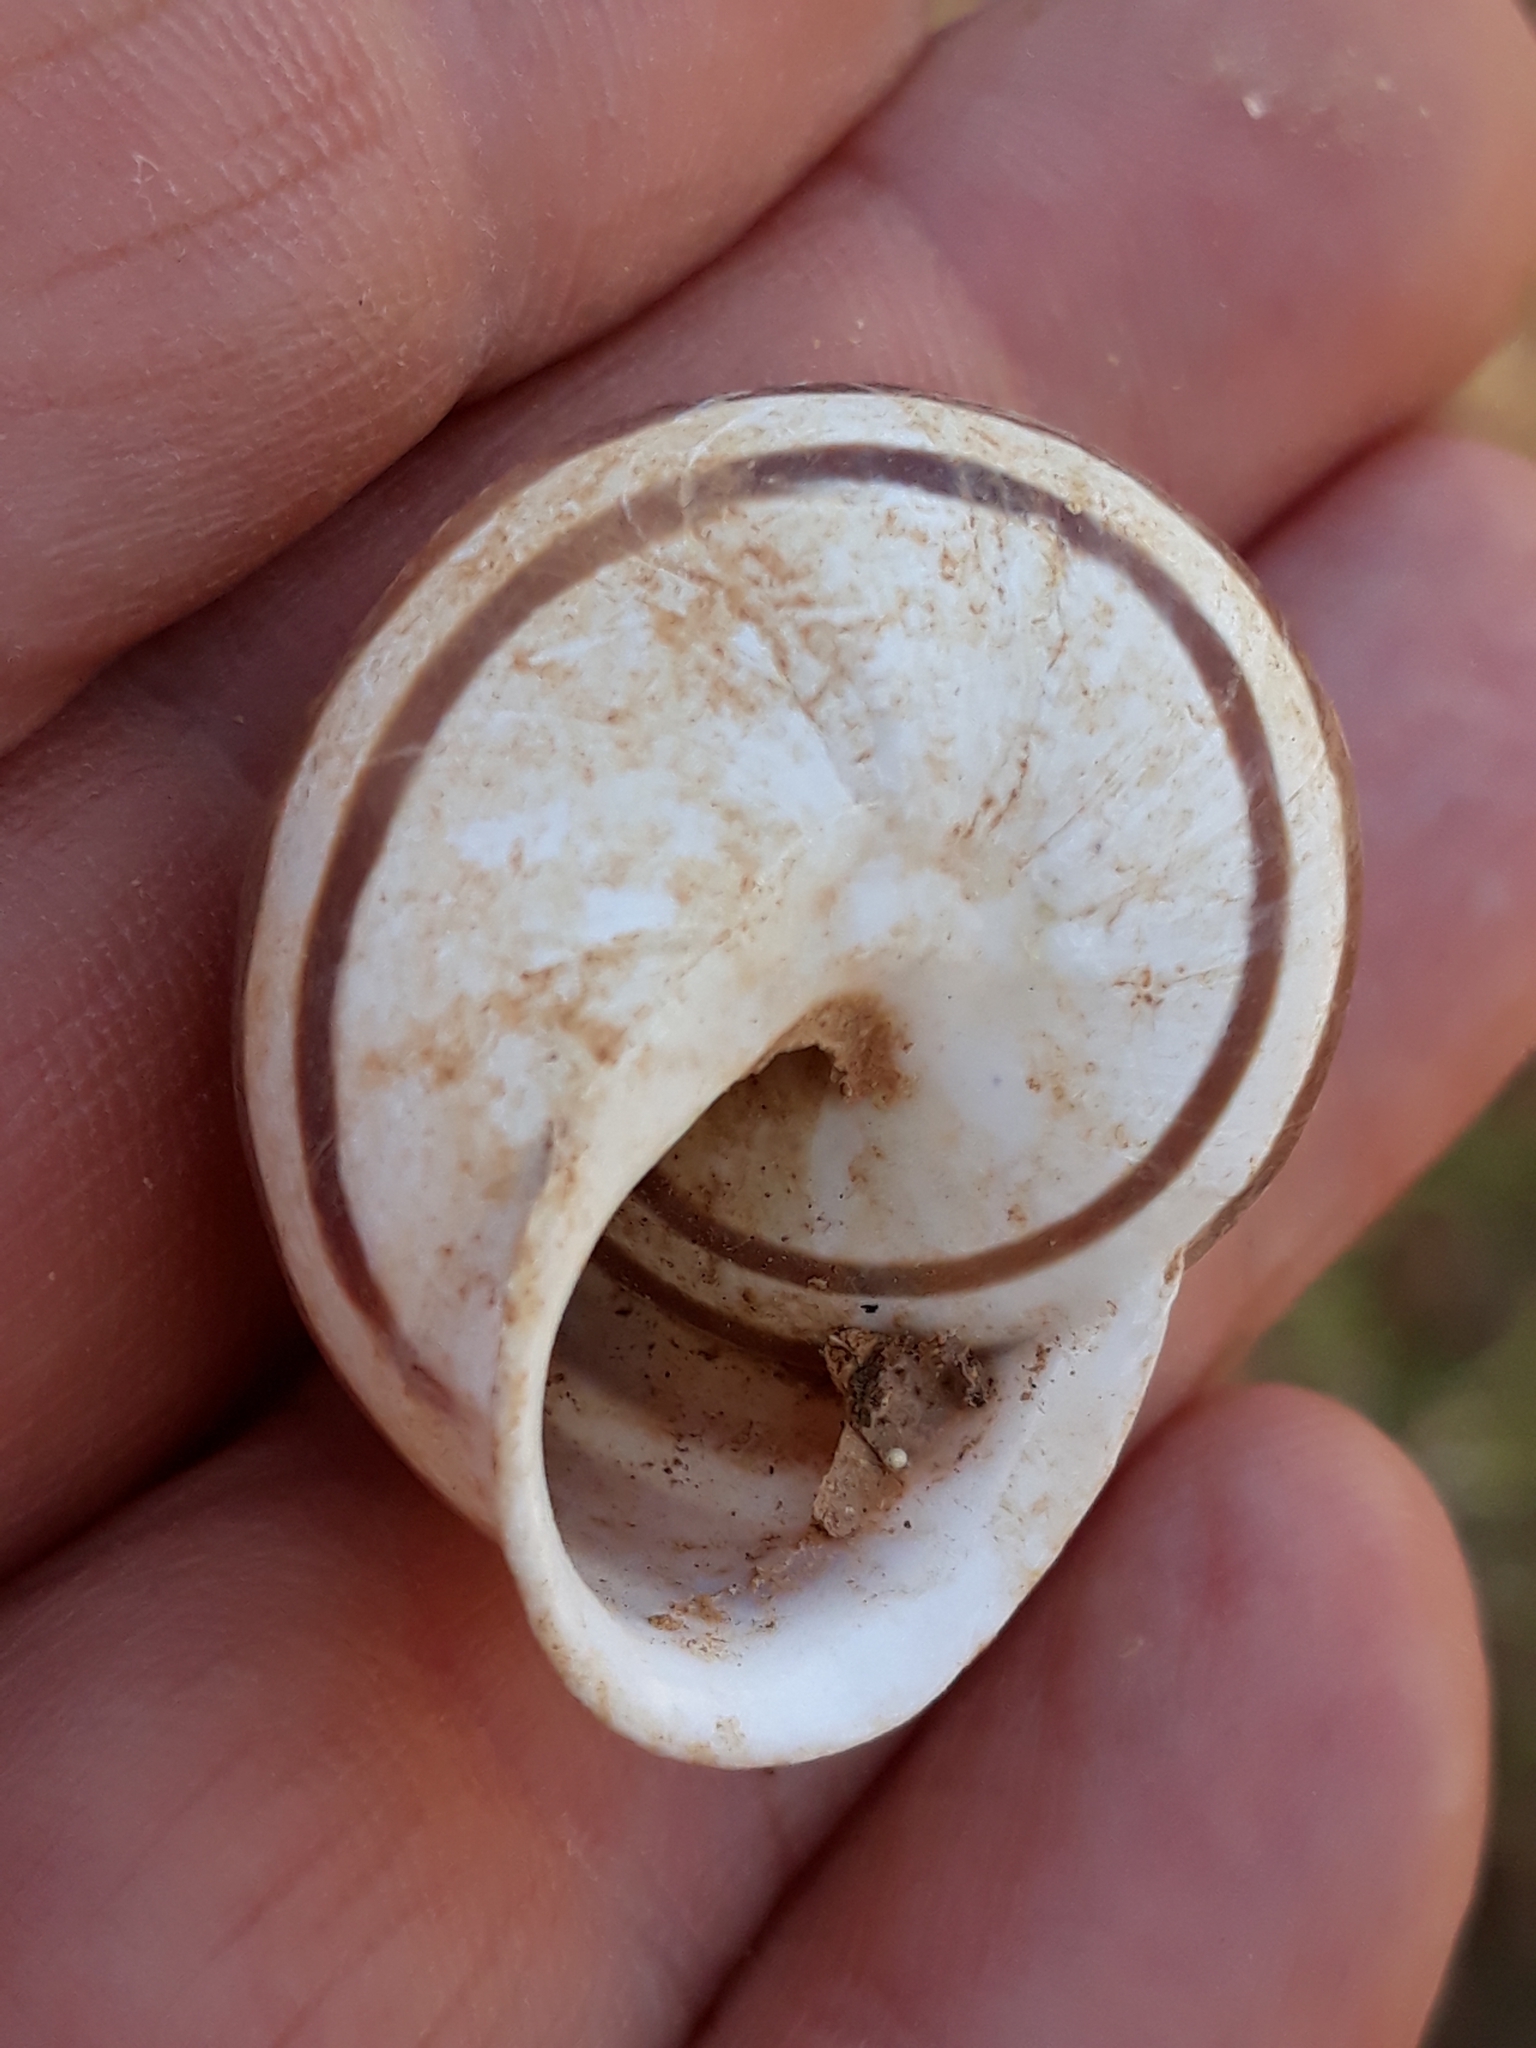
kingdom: Animalia
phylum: Mollusca
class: Gastropoda
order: Stylommatophora
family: Helicidae
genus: Eobania
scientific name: Eobania vermiculata
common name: Chocolateband snail
